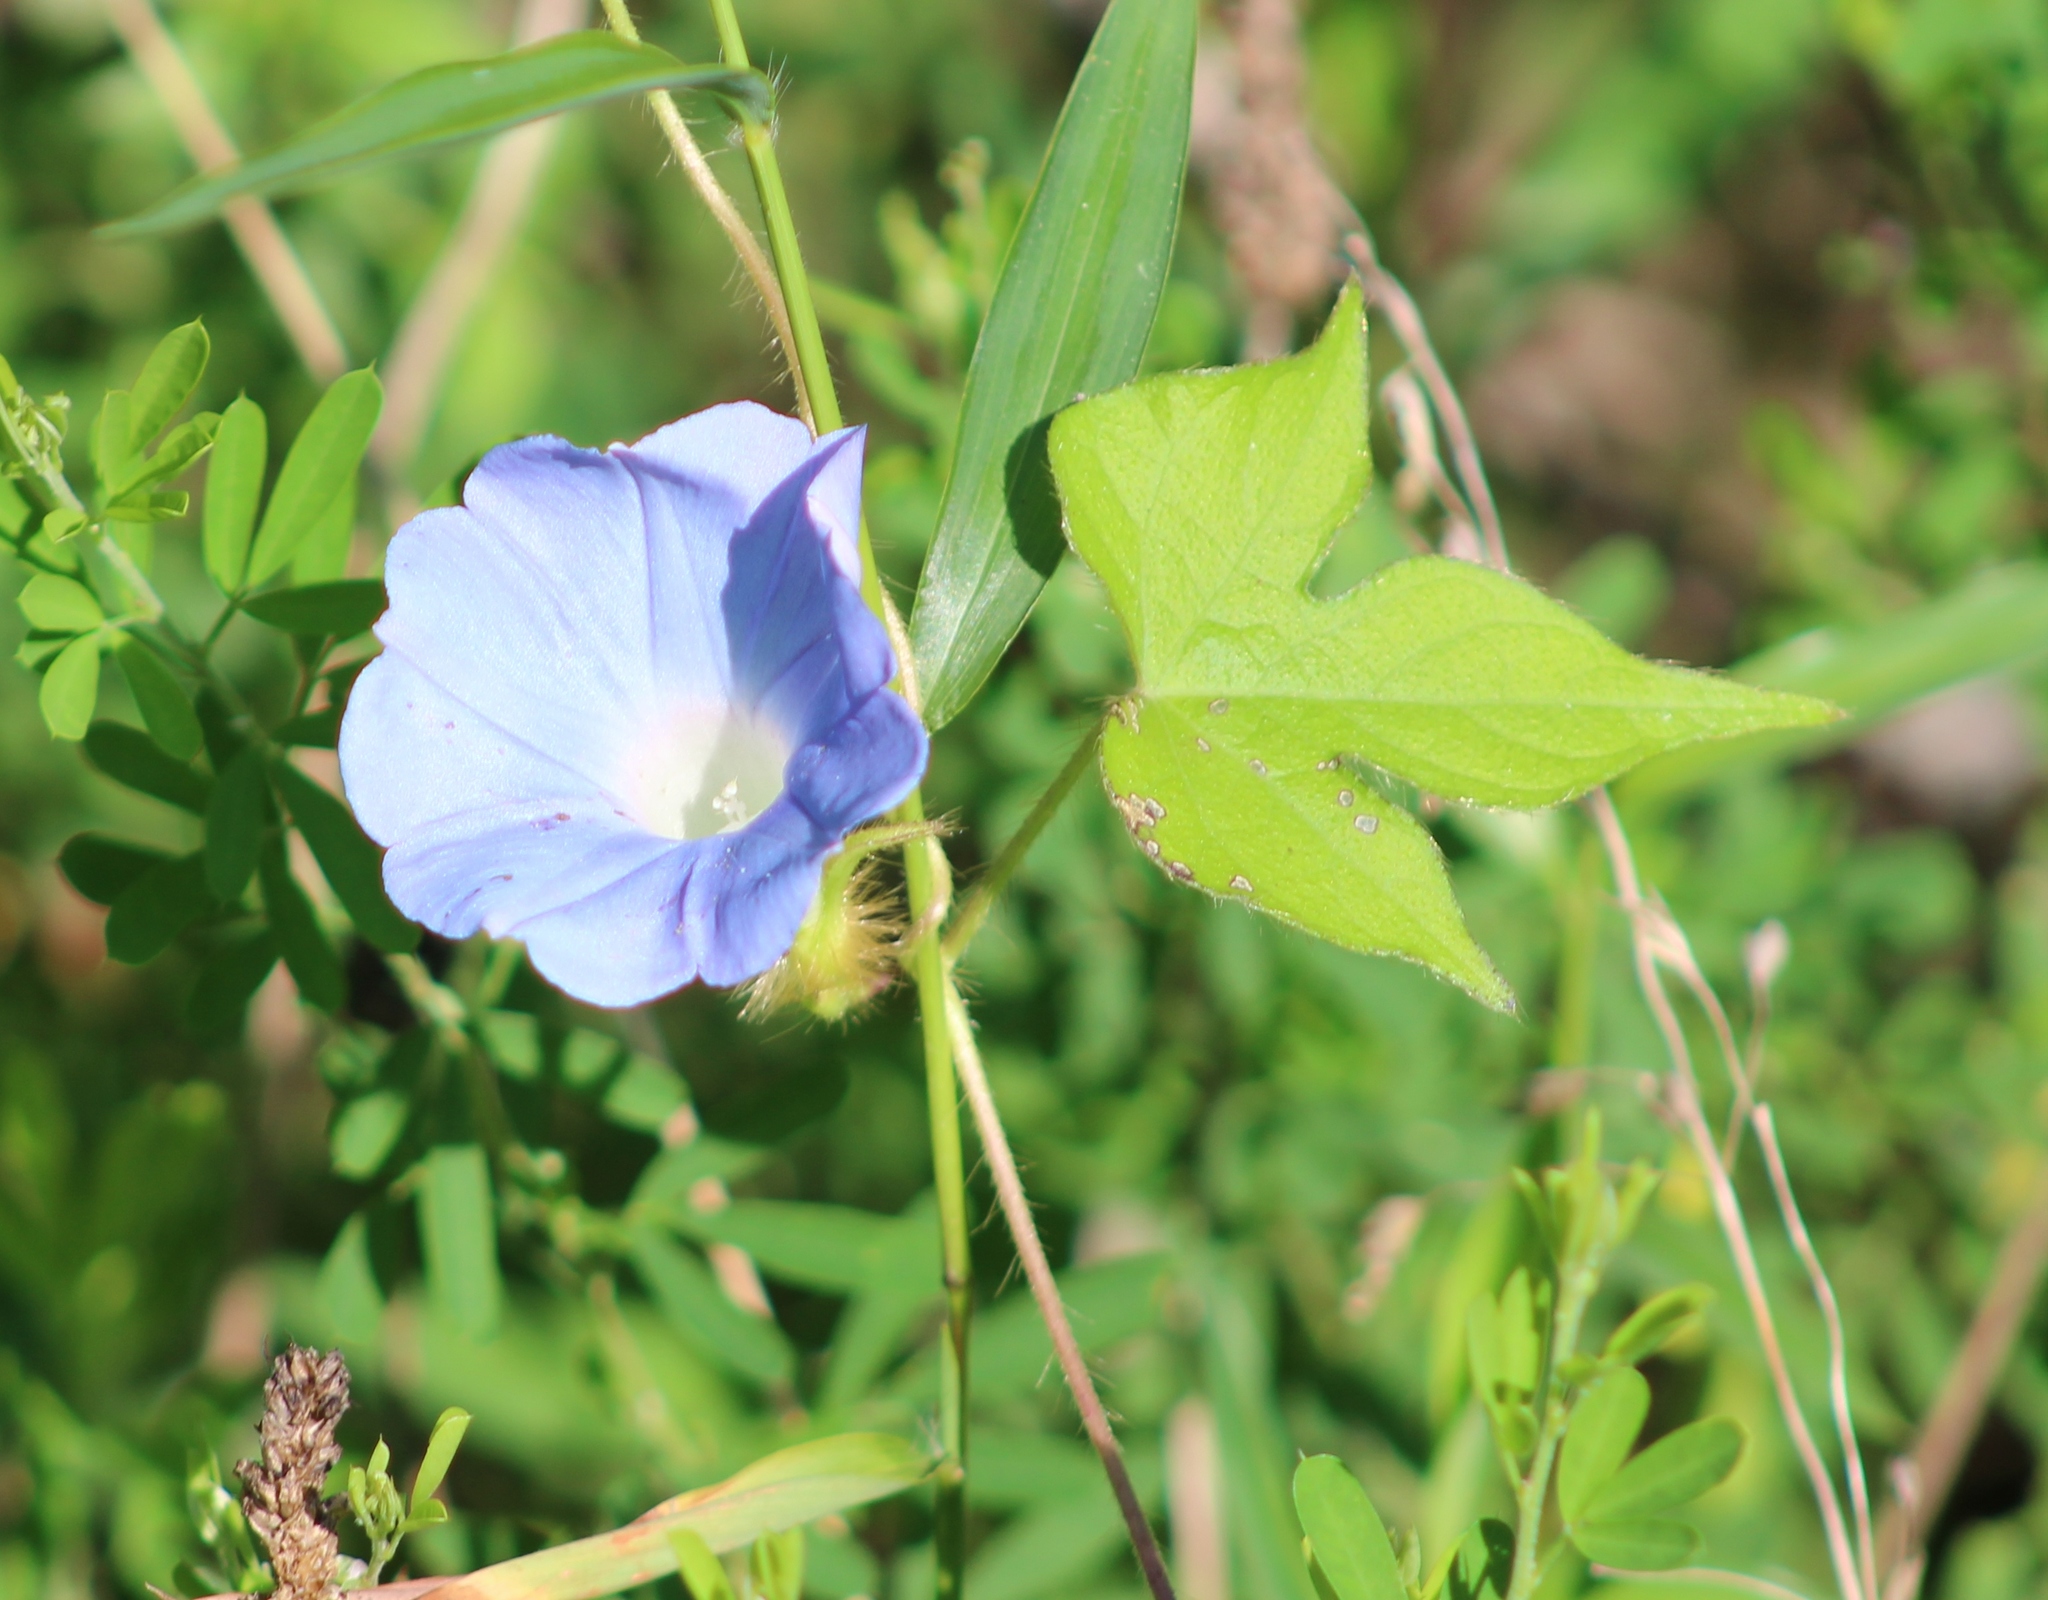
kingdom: Plantae
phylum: Tracheophyta
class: Magnoliopsida
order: Solanales
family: Convolvulaceae
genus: Ipomoea
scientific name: Ipomoea hederacea
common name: Ivy-leaved morning-glory
